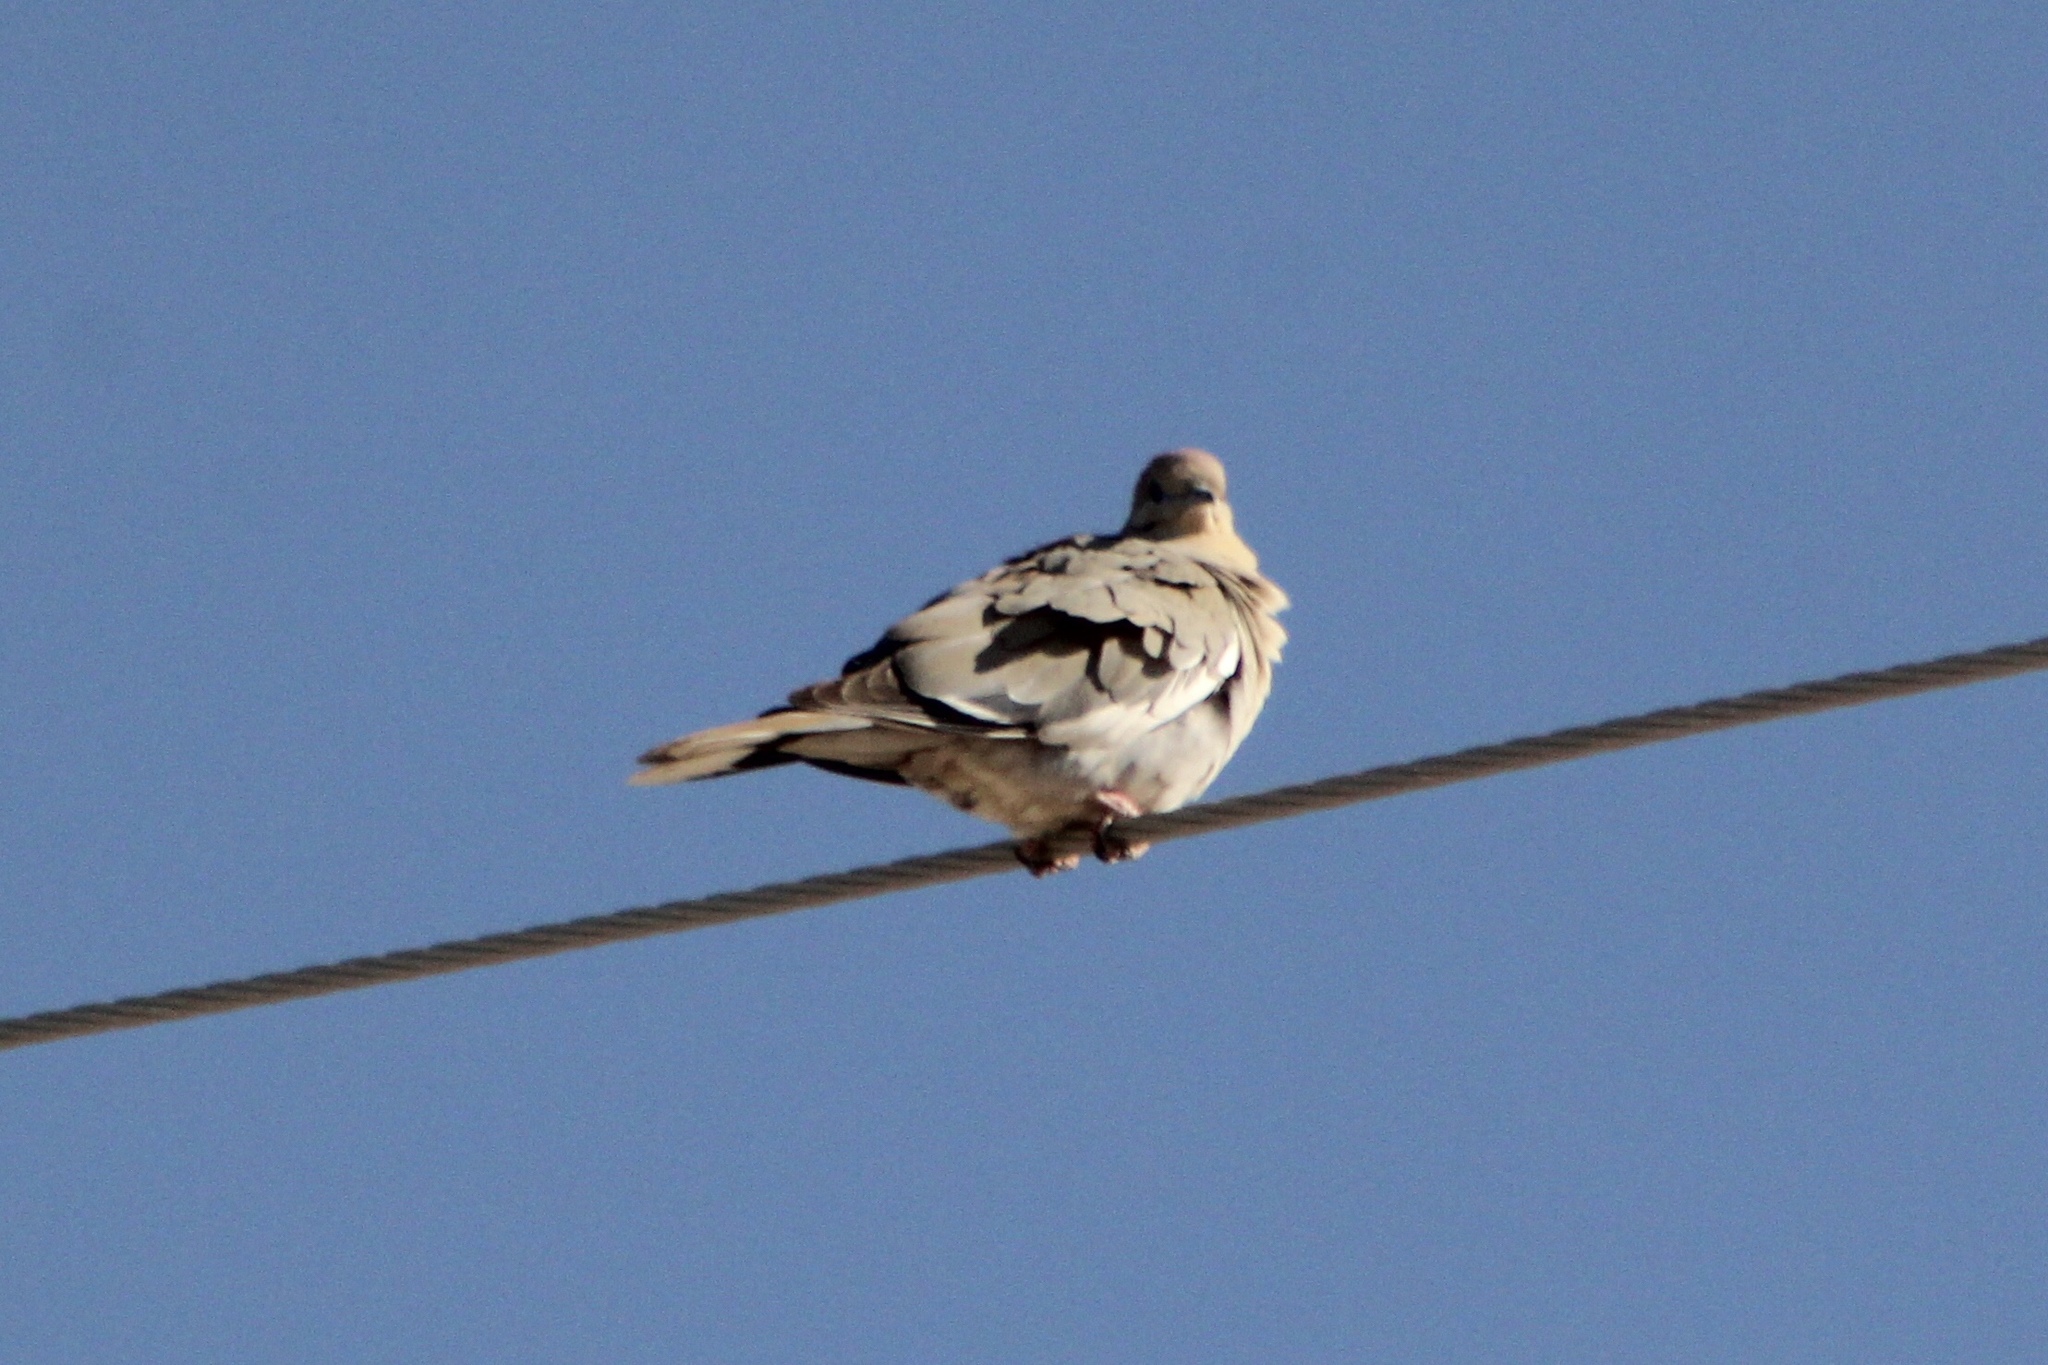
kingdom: Animalia
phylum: Chordata
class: Aves
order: Columbiformes
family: Columbidae
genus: Zenaida
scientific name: Zenaida asiatica
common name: White-winged dove
